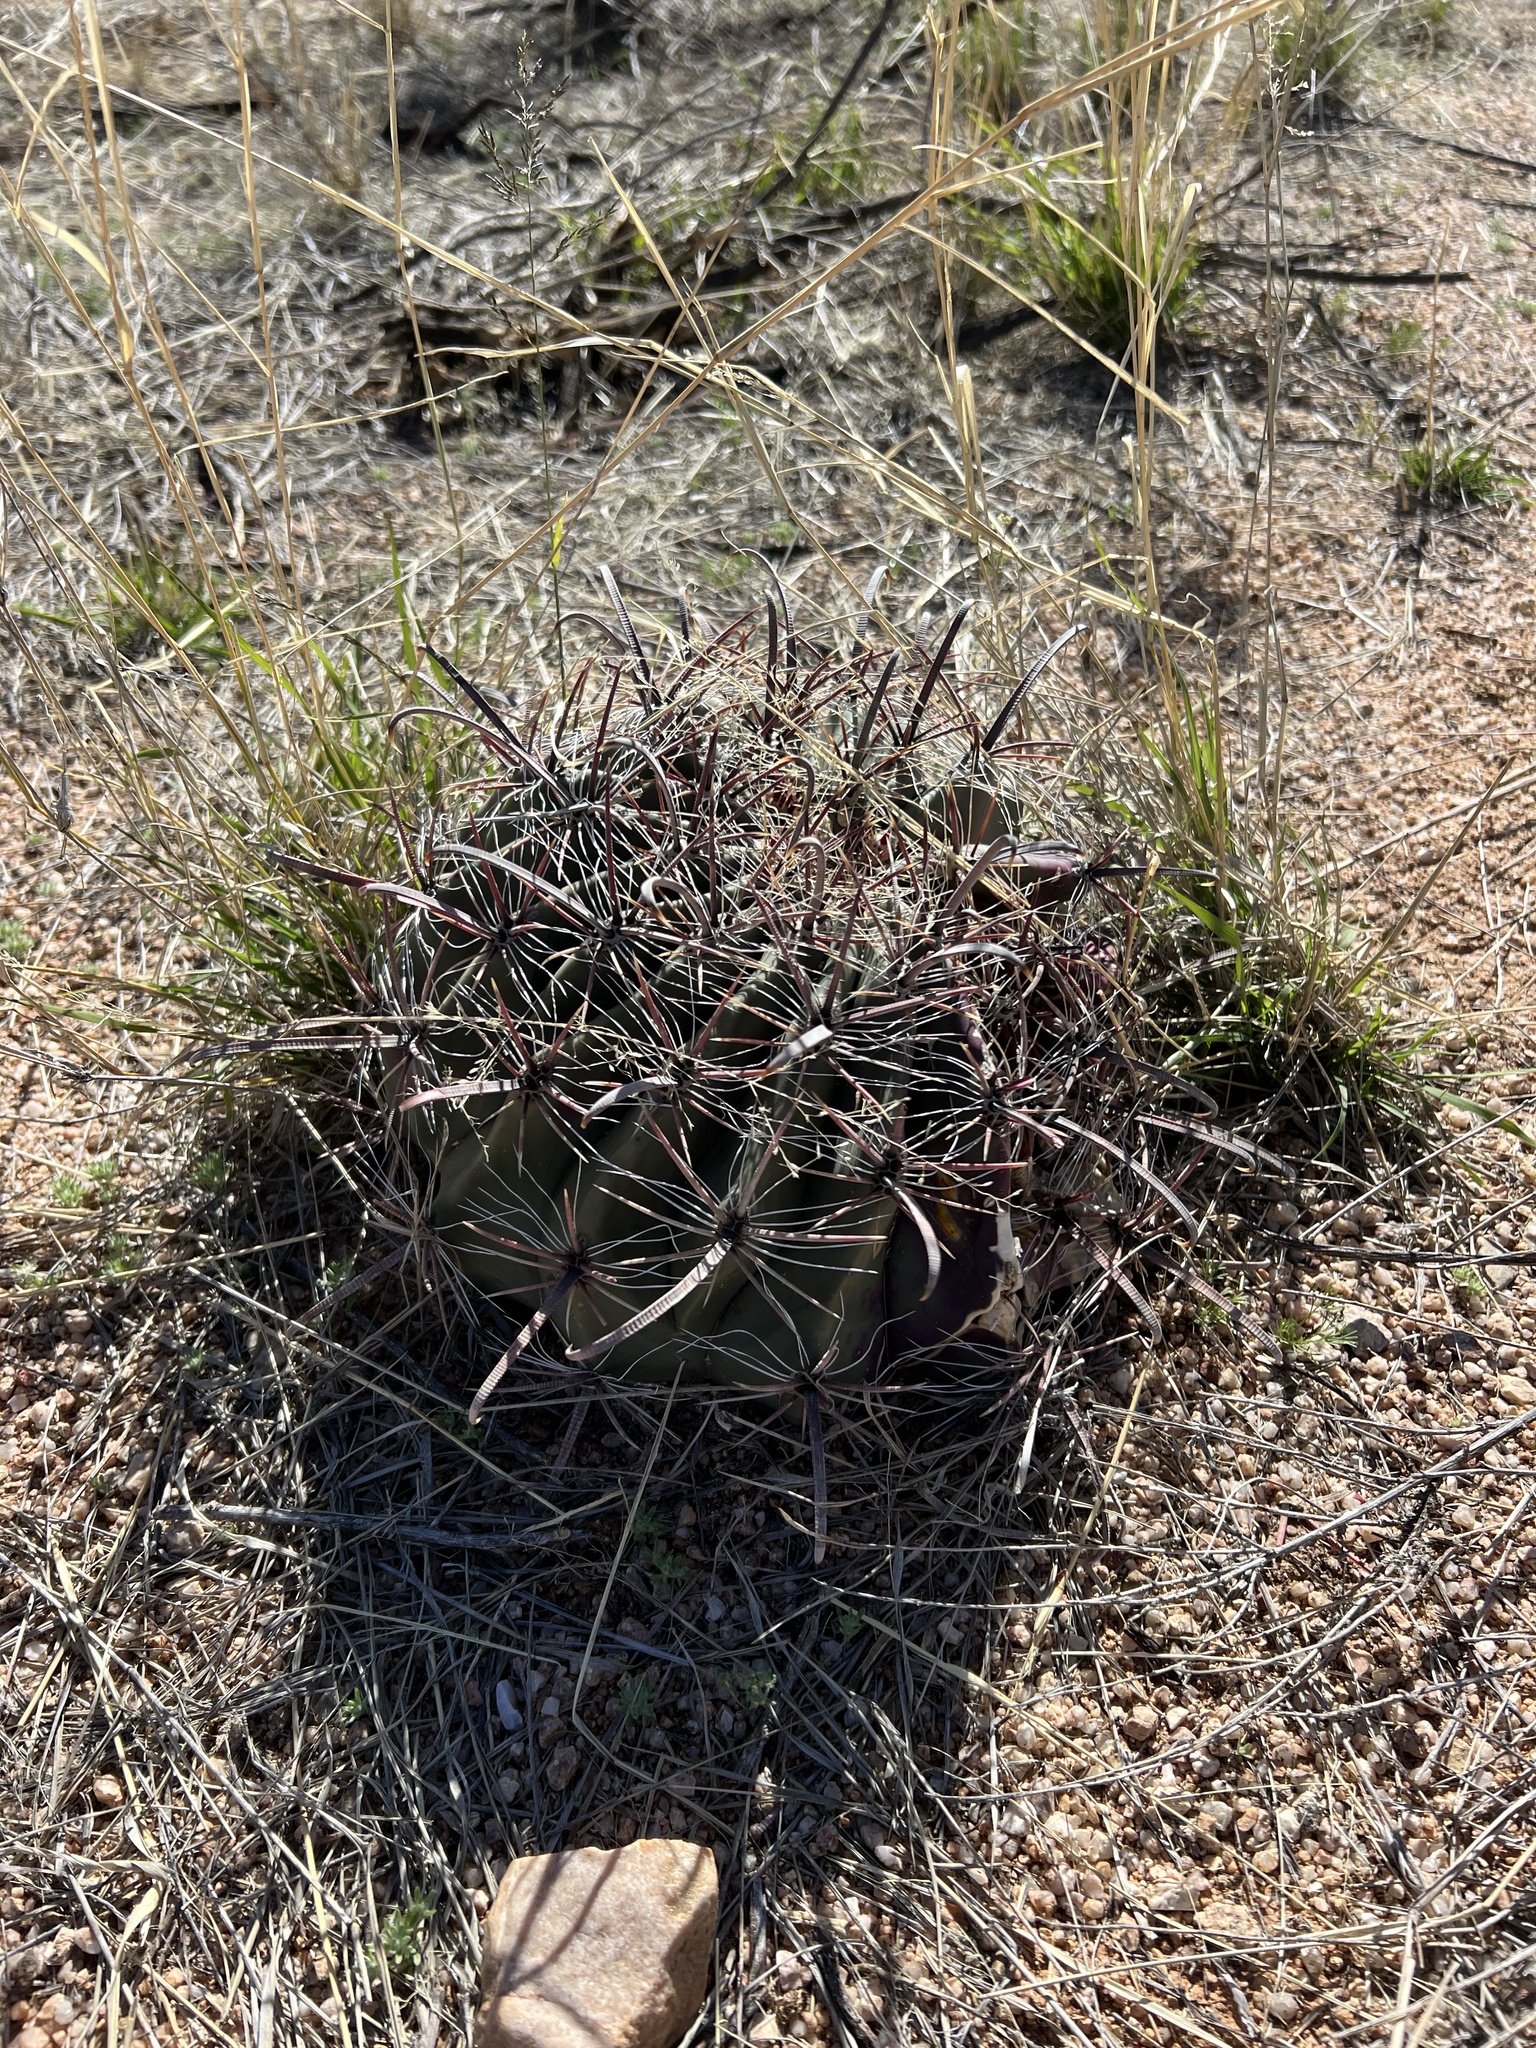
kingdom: Plantae
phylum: Tracheophyta
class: Magnoliopsida
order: Caryophyllales
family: Cactaceae
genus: Ferocactus
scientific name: Ferocactus wislizeni
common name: Candy barrel cactus
